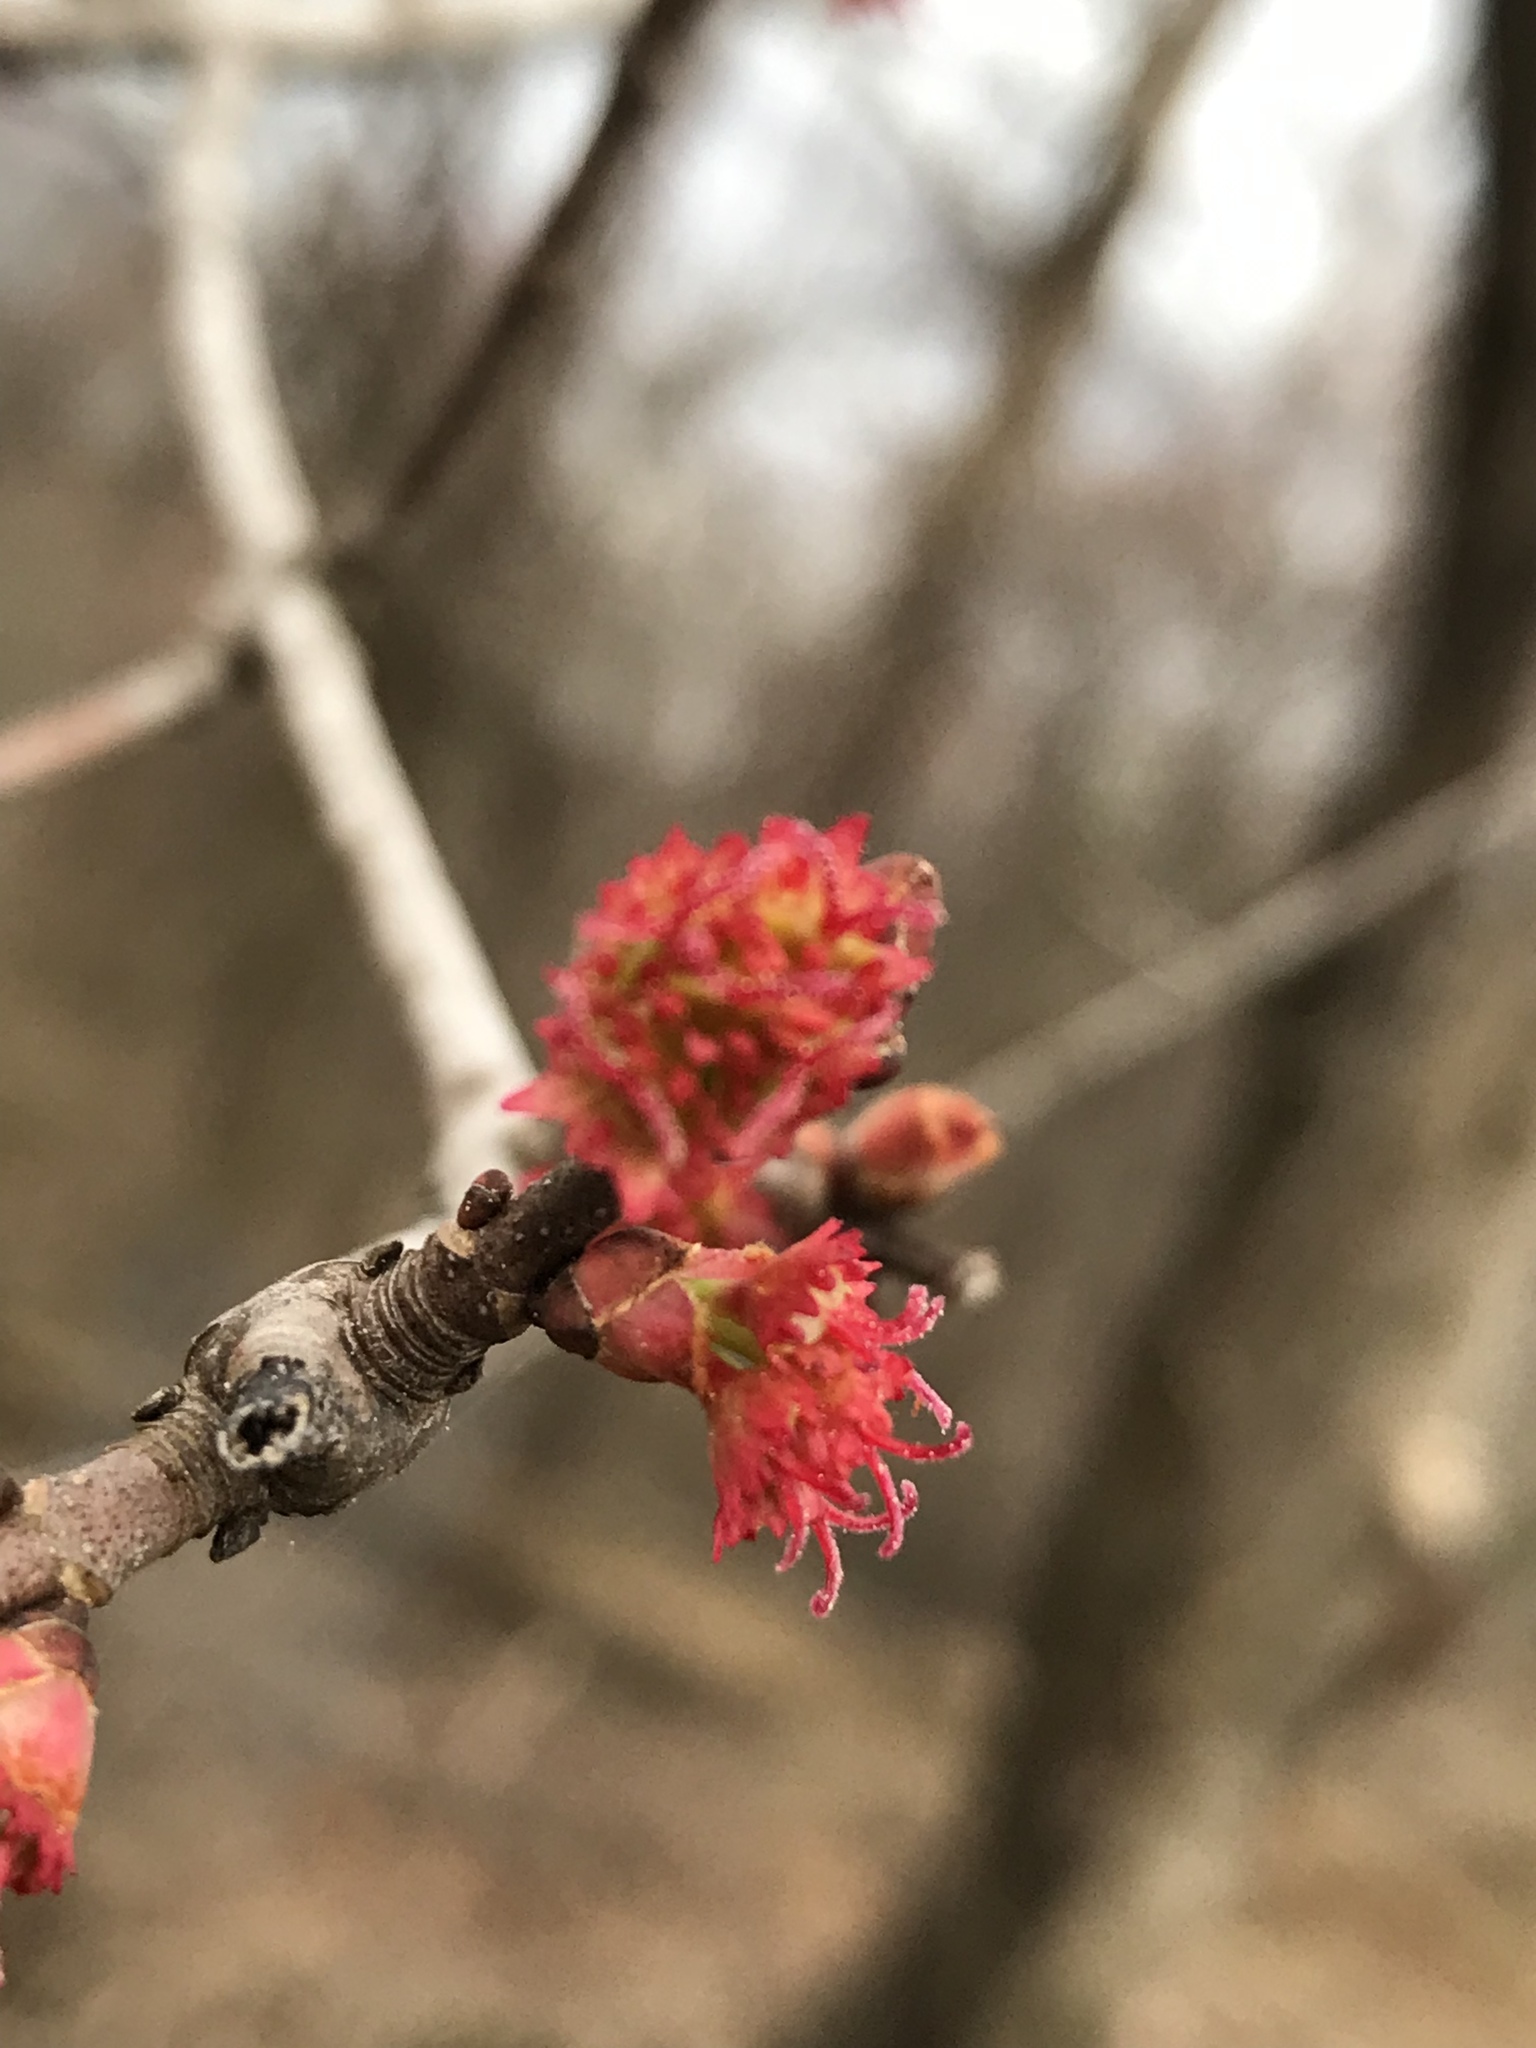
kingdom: Plantae
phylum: Tracheophyta
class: Magnoliopsida
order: Sapindales
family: Sapindaceae
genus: Acer
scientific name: Acer rubrum
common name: Red maple
